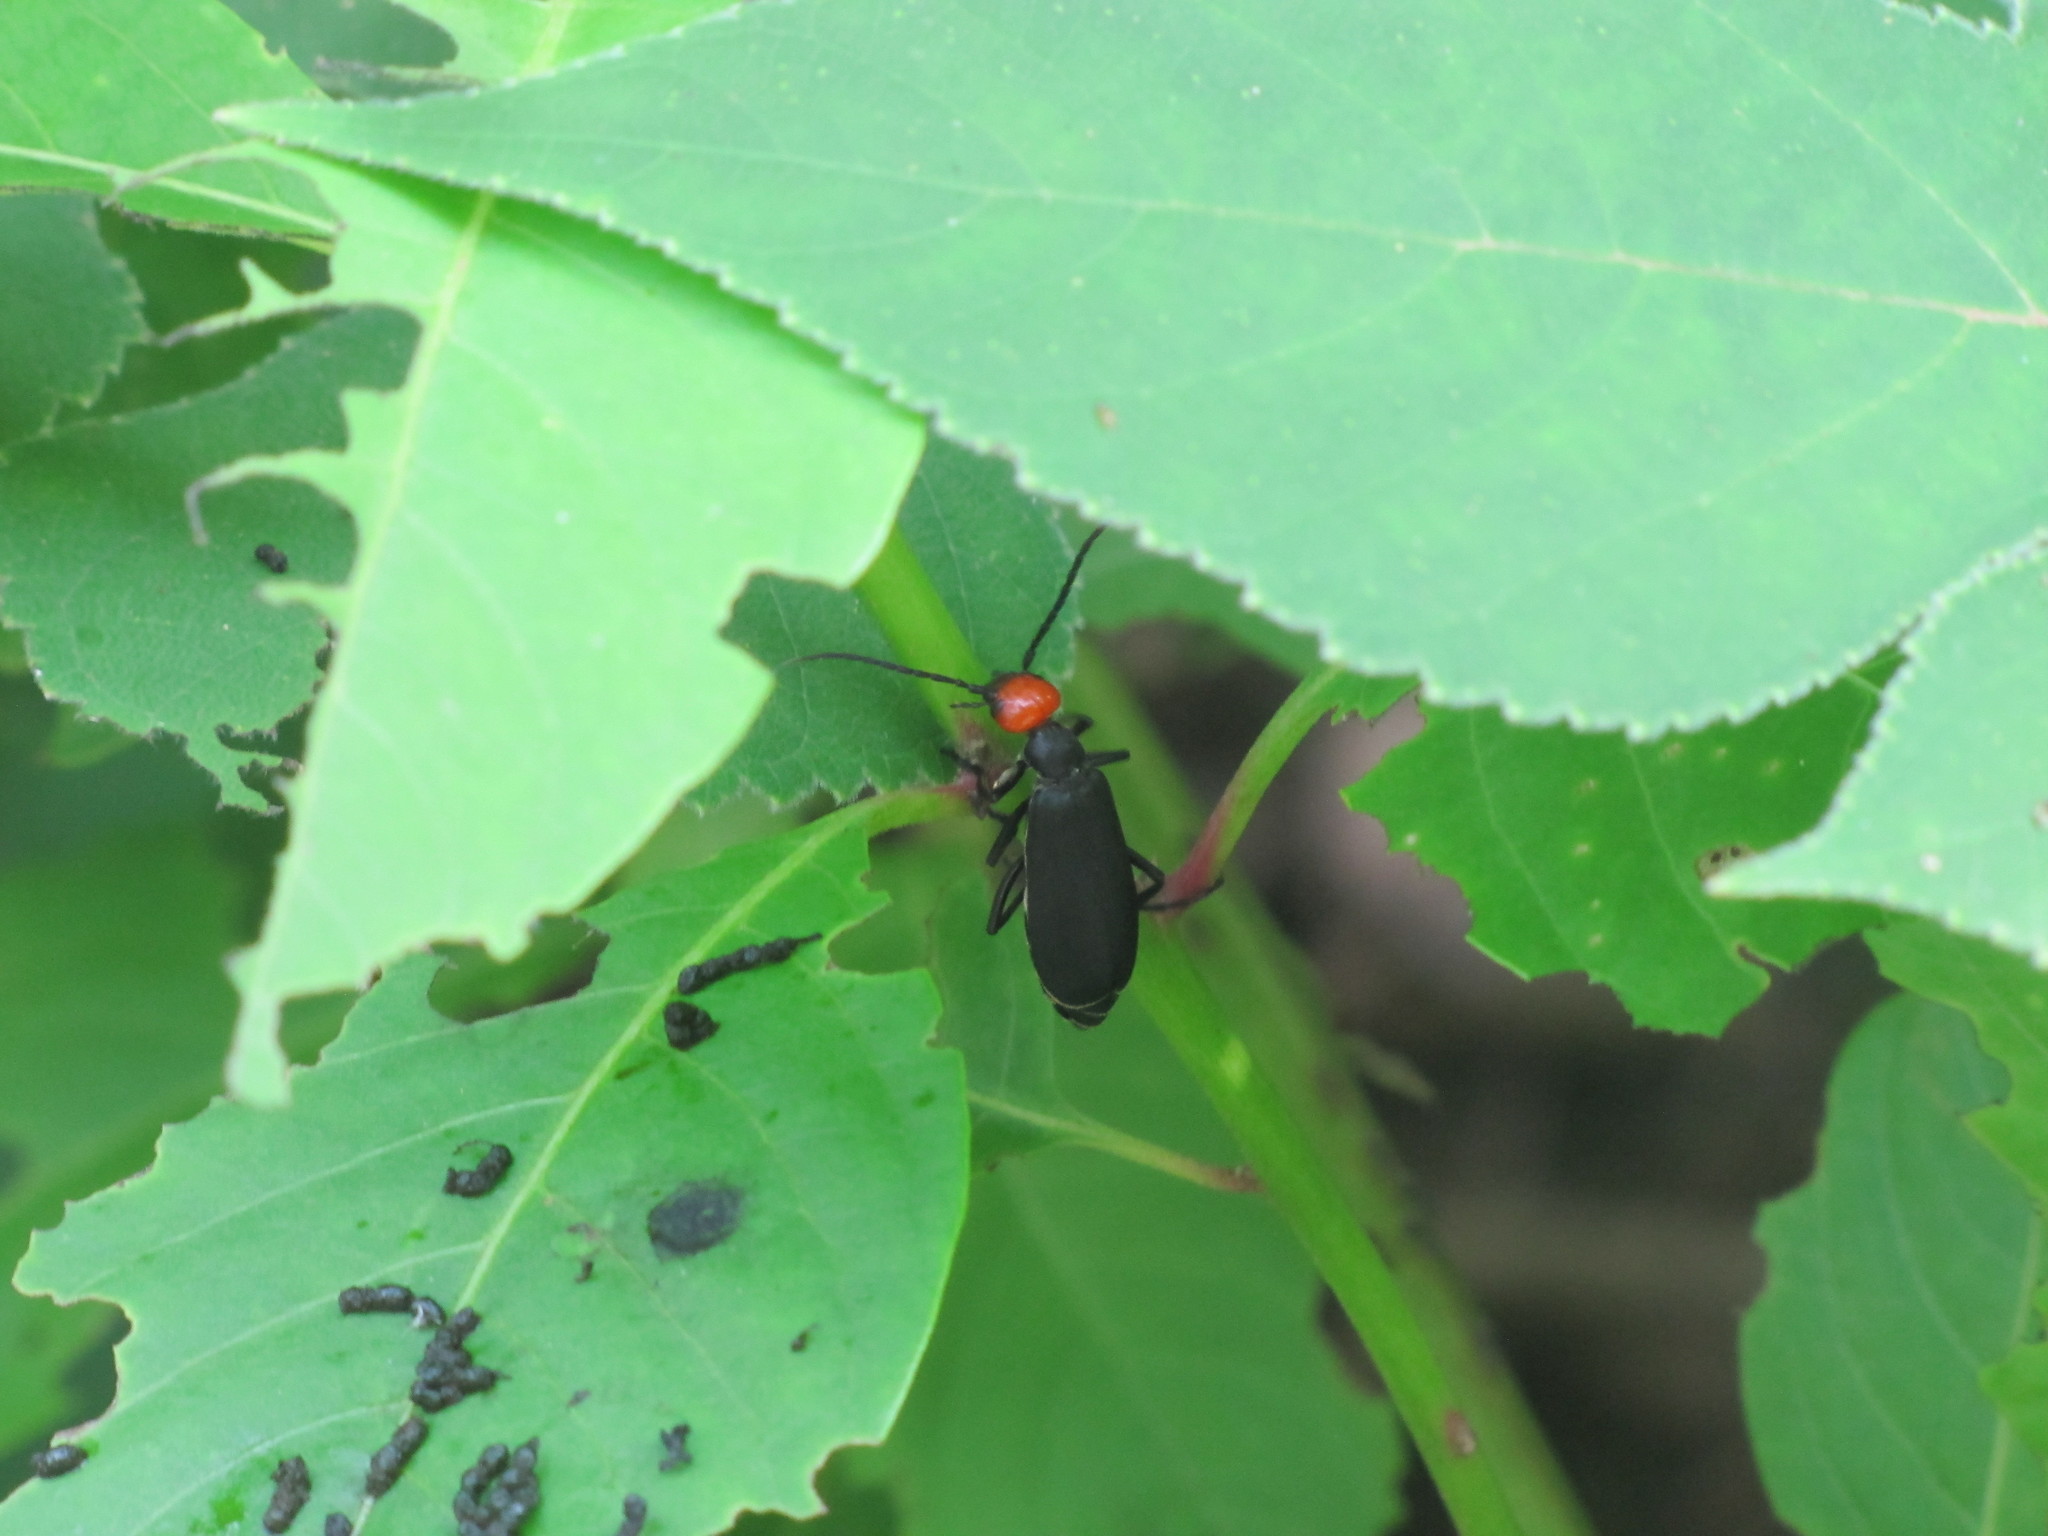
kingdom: Animalia
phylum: Arthropoda
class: Insecta
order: Coleoptera
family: Meloidae
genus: Epicauta
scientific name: Epicauta hirticornis
